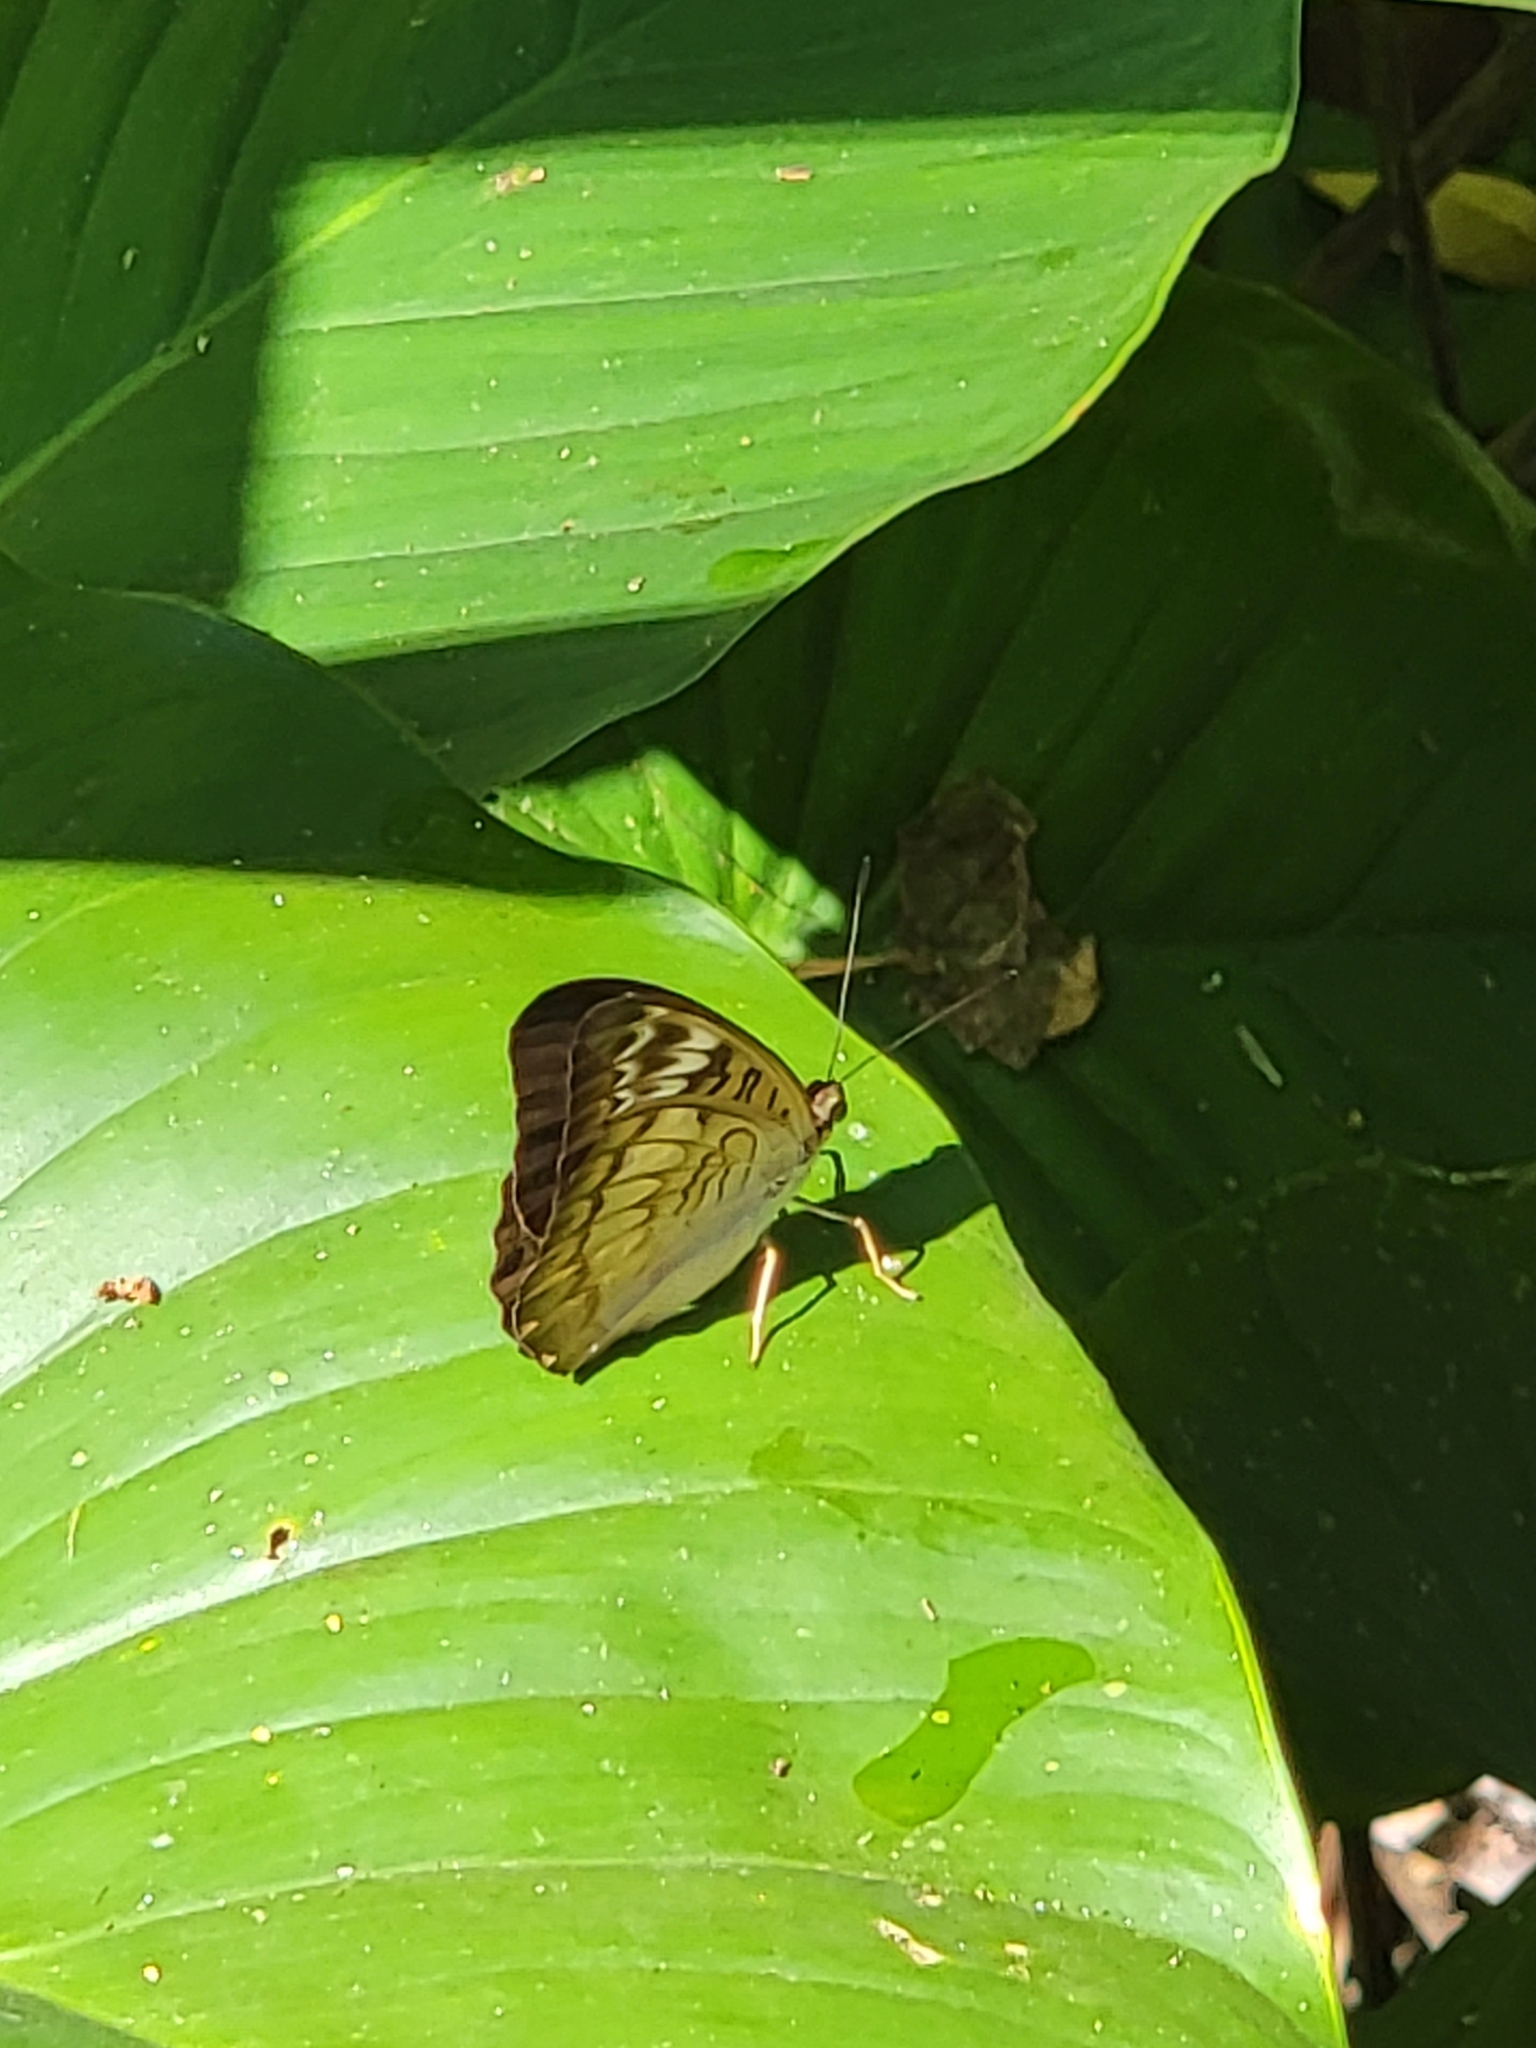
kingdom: Animalia
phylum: Arthropoda
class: Insecta
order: Lepidoptera
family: Nymphalidae
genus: Tanaecia
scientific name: Tanaecia palguna
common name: Long-lined viscount
